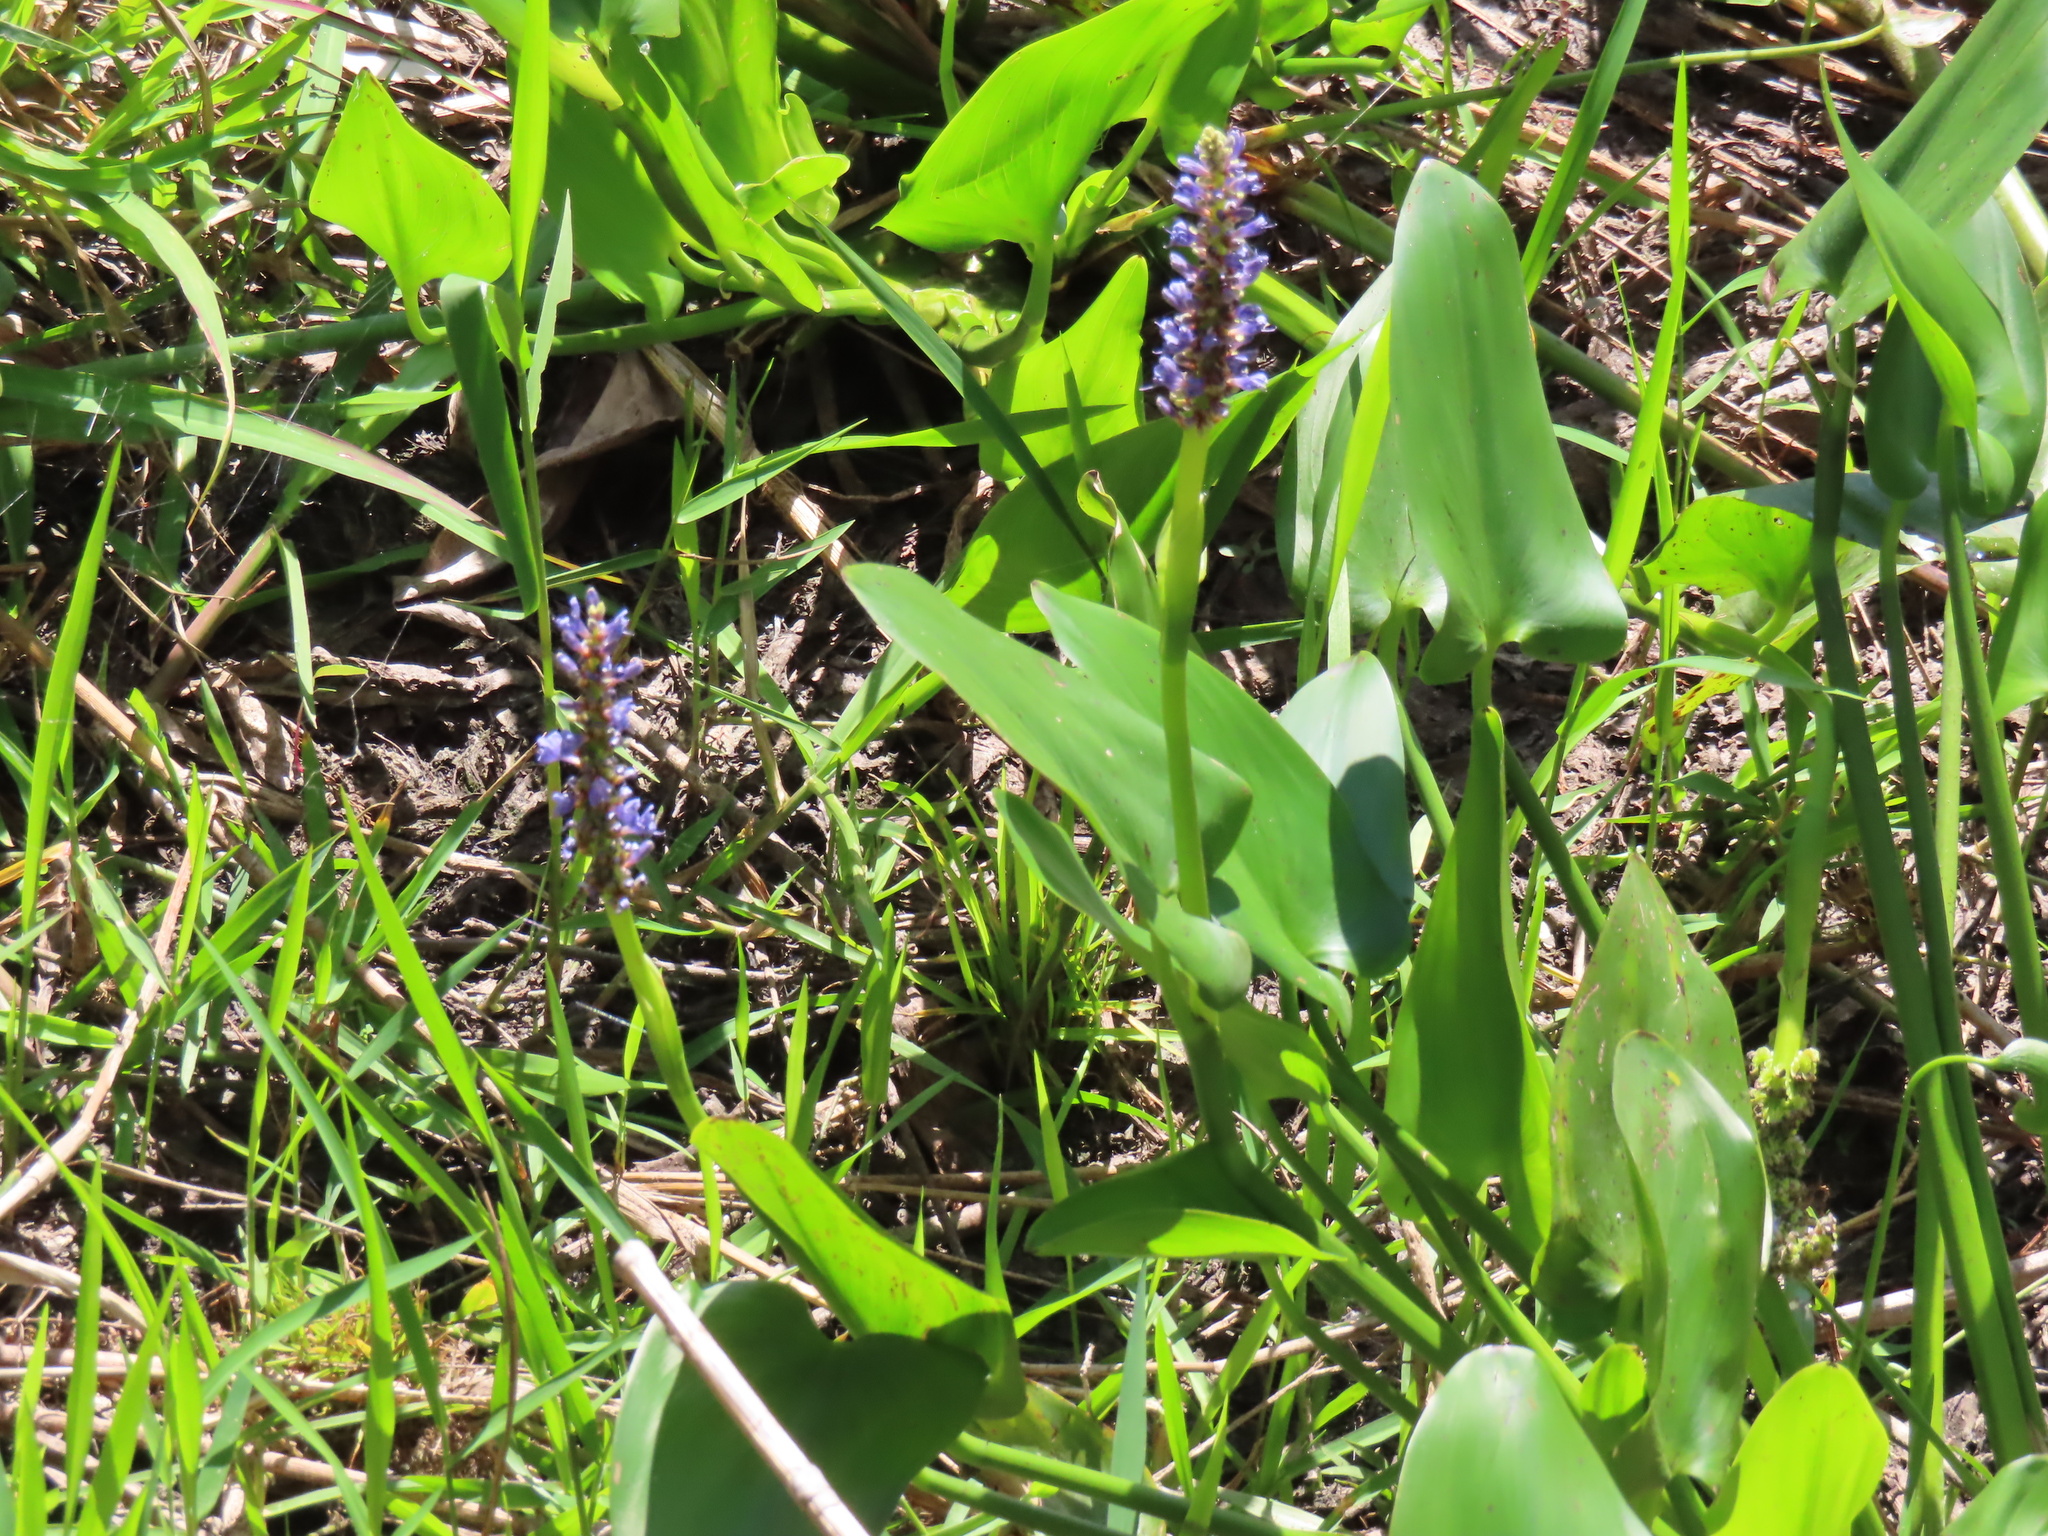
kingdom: Plantae
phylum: Tracheophyta
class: Liliopsida
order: Zingiberales
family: Marantaceae
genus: Thalia
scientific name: Thalia geniculata
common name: Arrowroot
